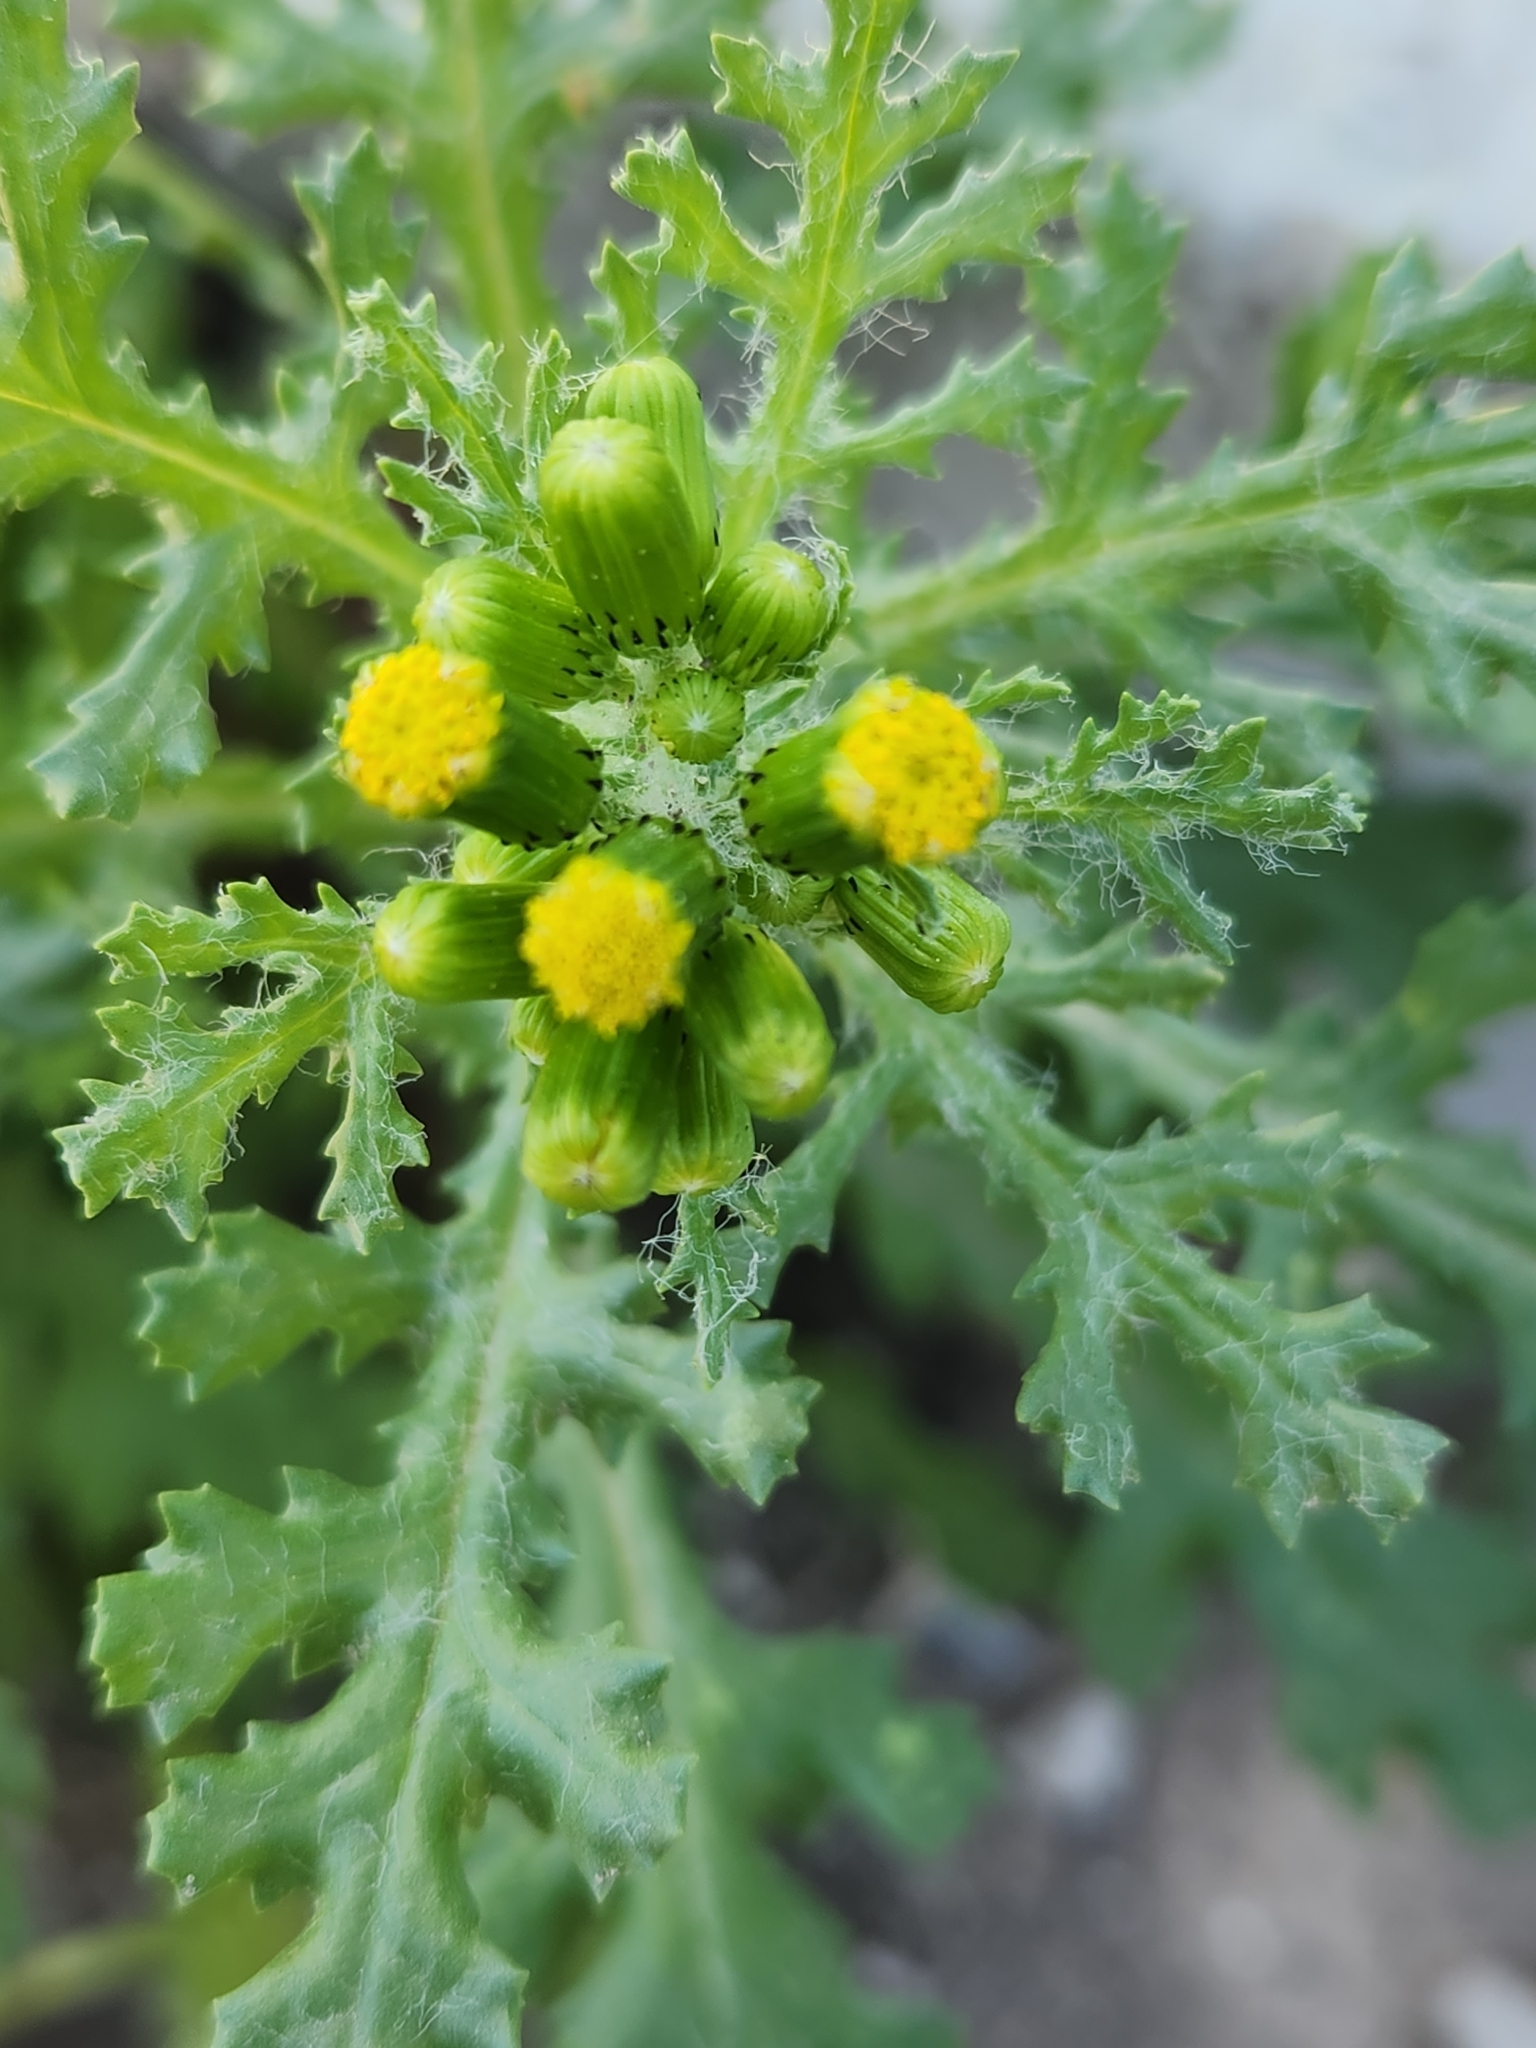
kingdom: Plantae
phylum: Tracheophyta
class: Magnoliopsida
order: Asterales
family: Asteraceae
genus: Senecio
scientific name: Senecio vulgaris
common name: Old-man-in-the-spring
